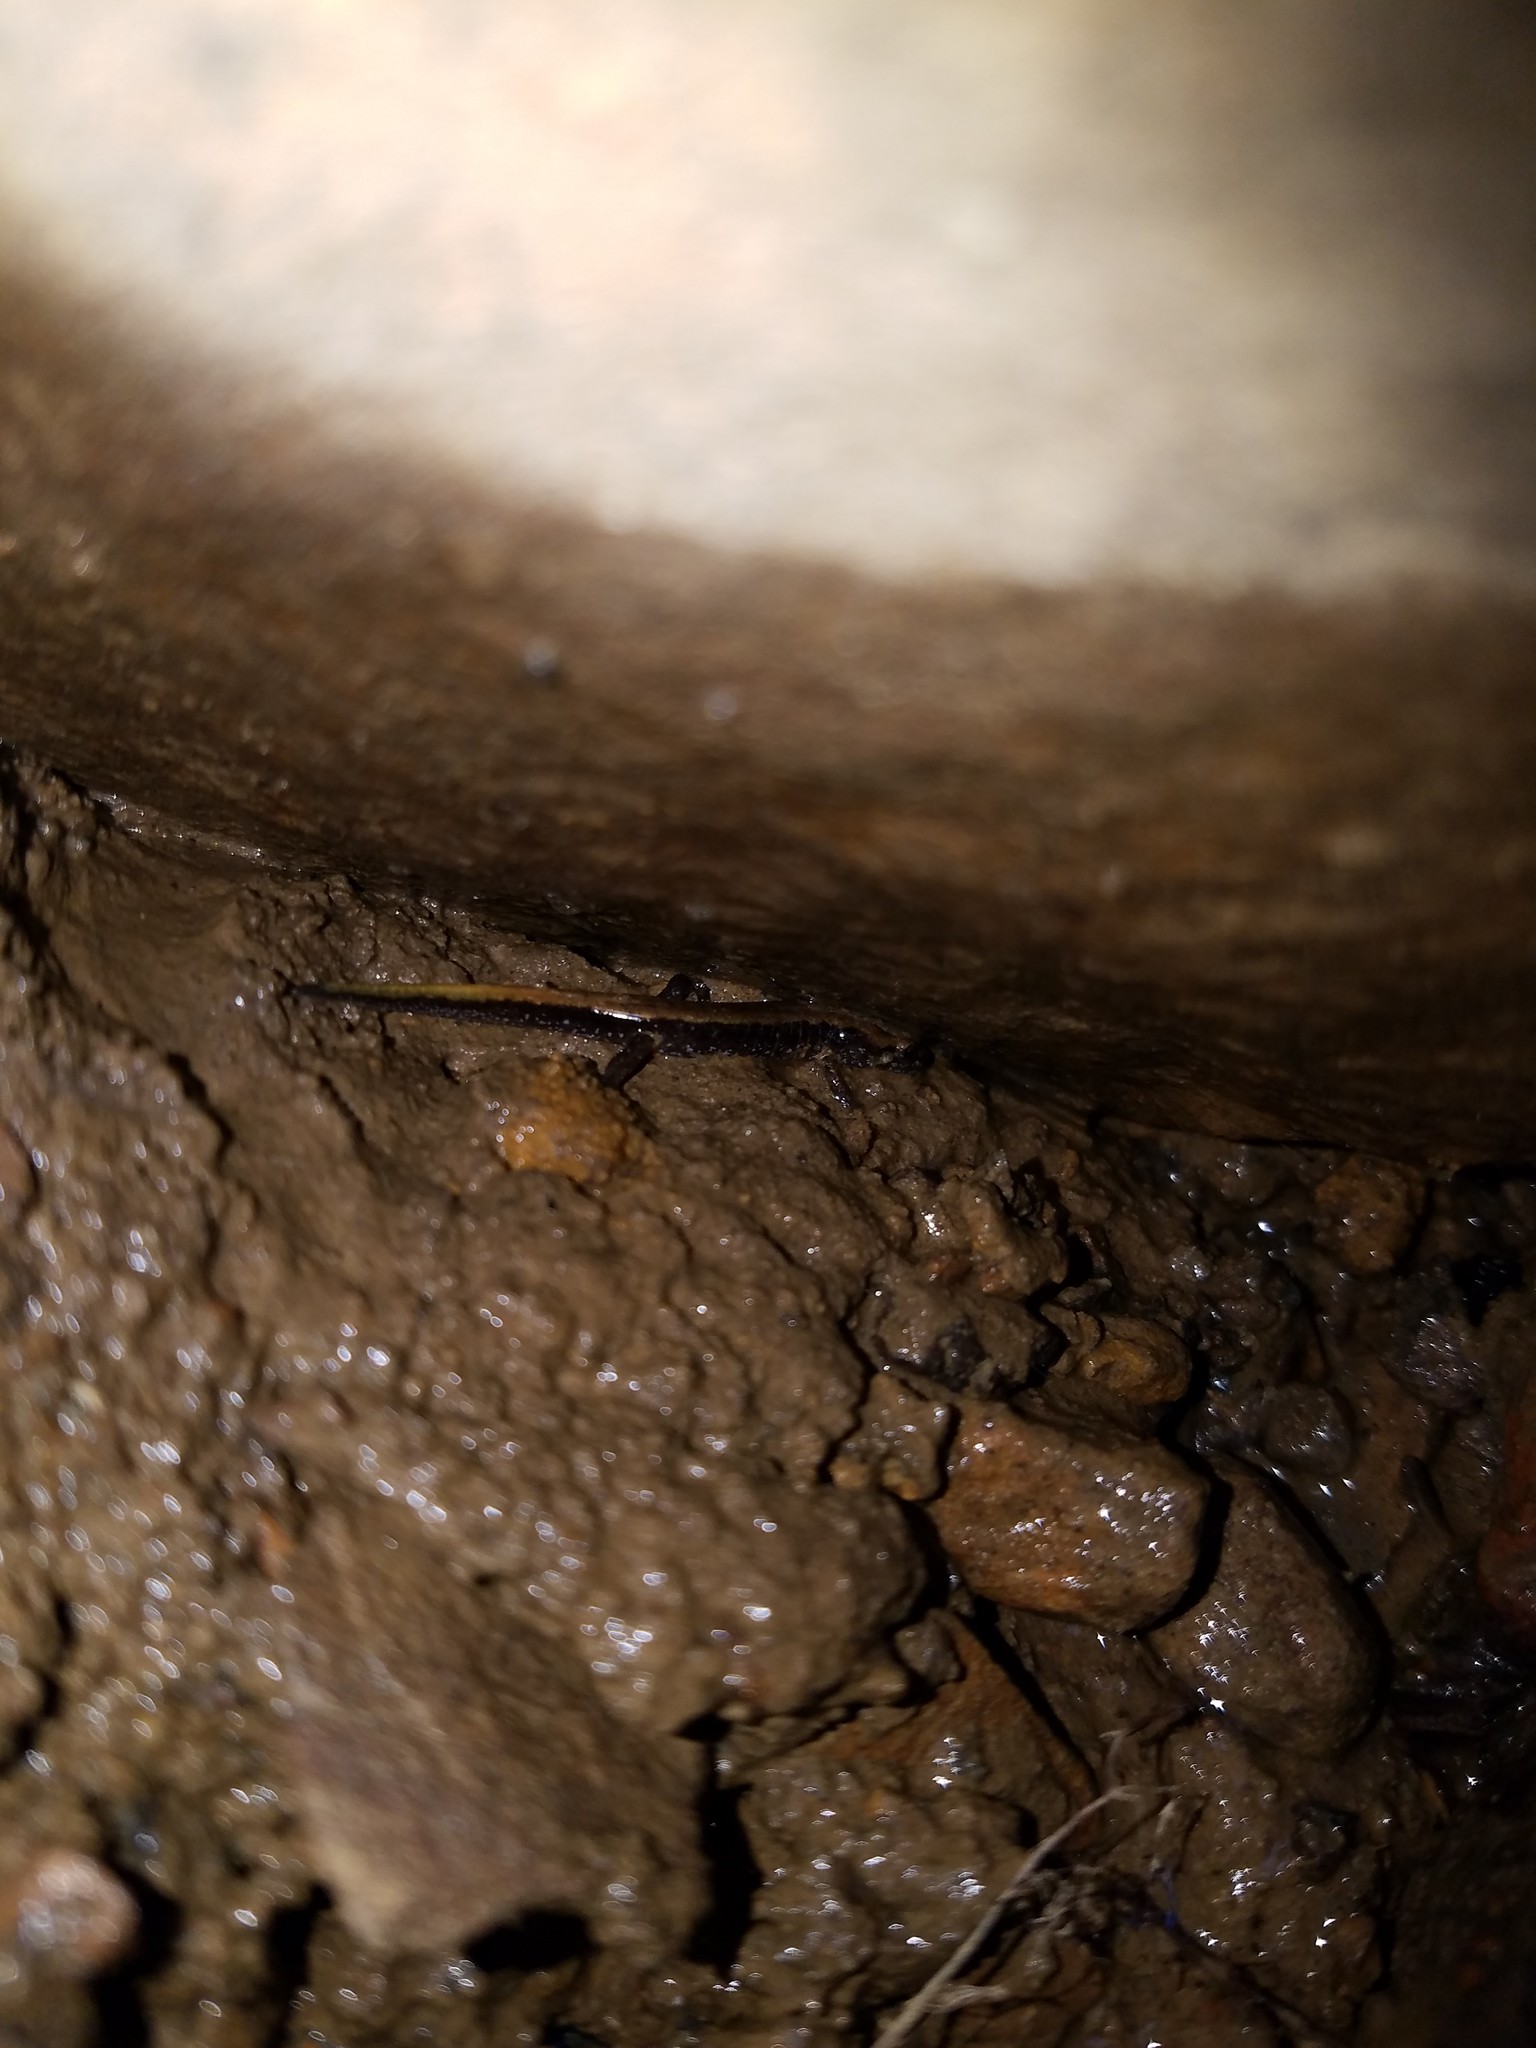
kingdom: Animalia
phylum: Chordata
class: Amphibia
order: Caudata
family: Plethodontidae
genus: Desmognathus
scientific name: Desmognathus ochrophaeus
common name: Allegheny mountain dusky salamander
